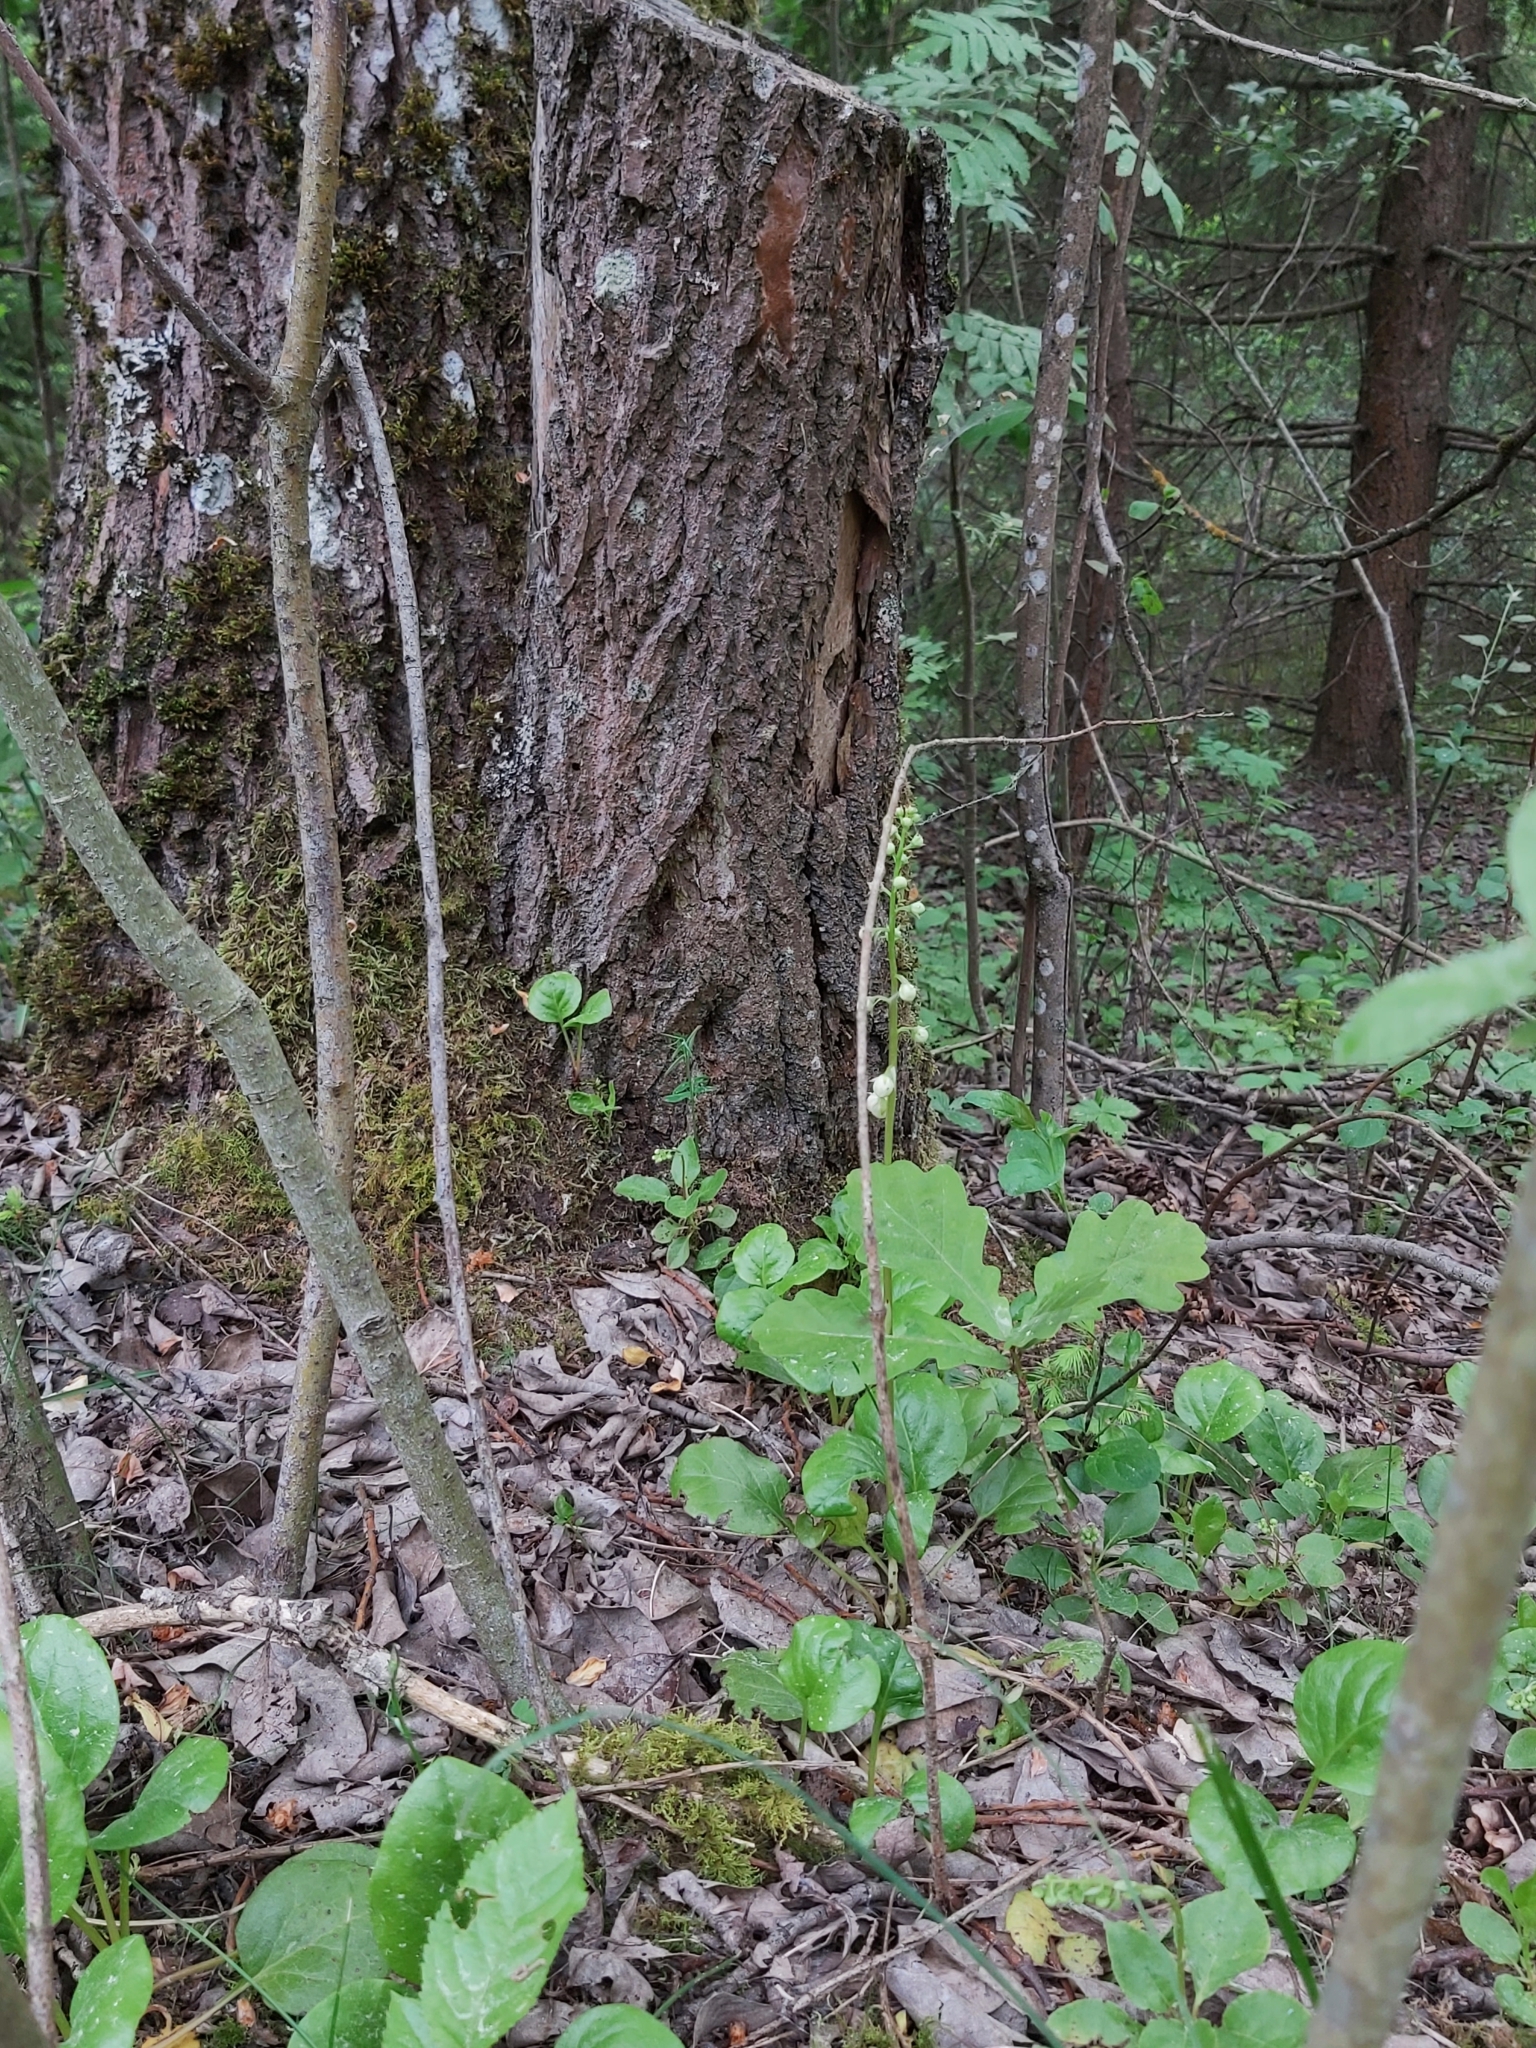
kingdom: Plantae
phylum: Tracheophyta
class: Magnoliopsida
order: Ericales
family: Ericaceae
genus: Pyrola
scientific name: Pyrola rotundifolia
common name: Round-leaved wintergreen
